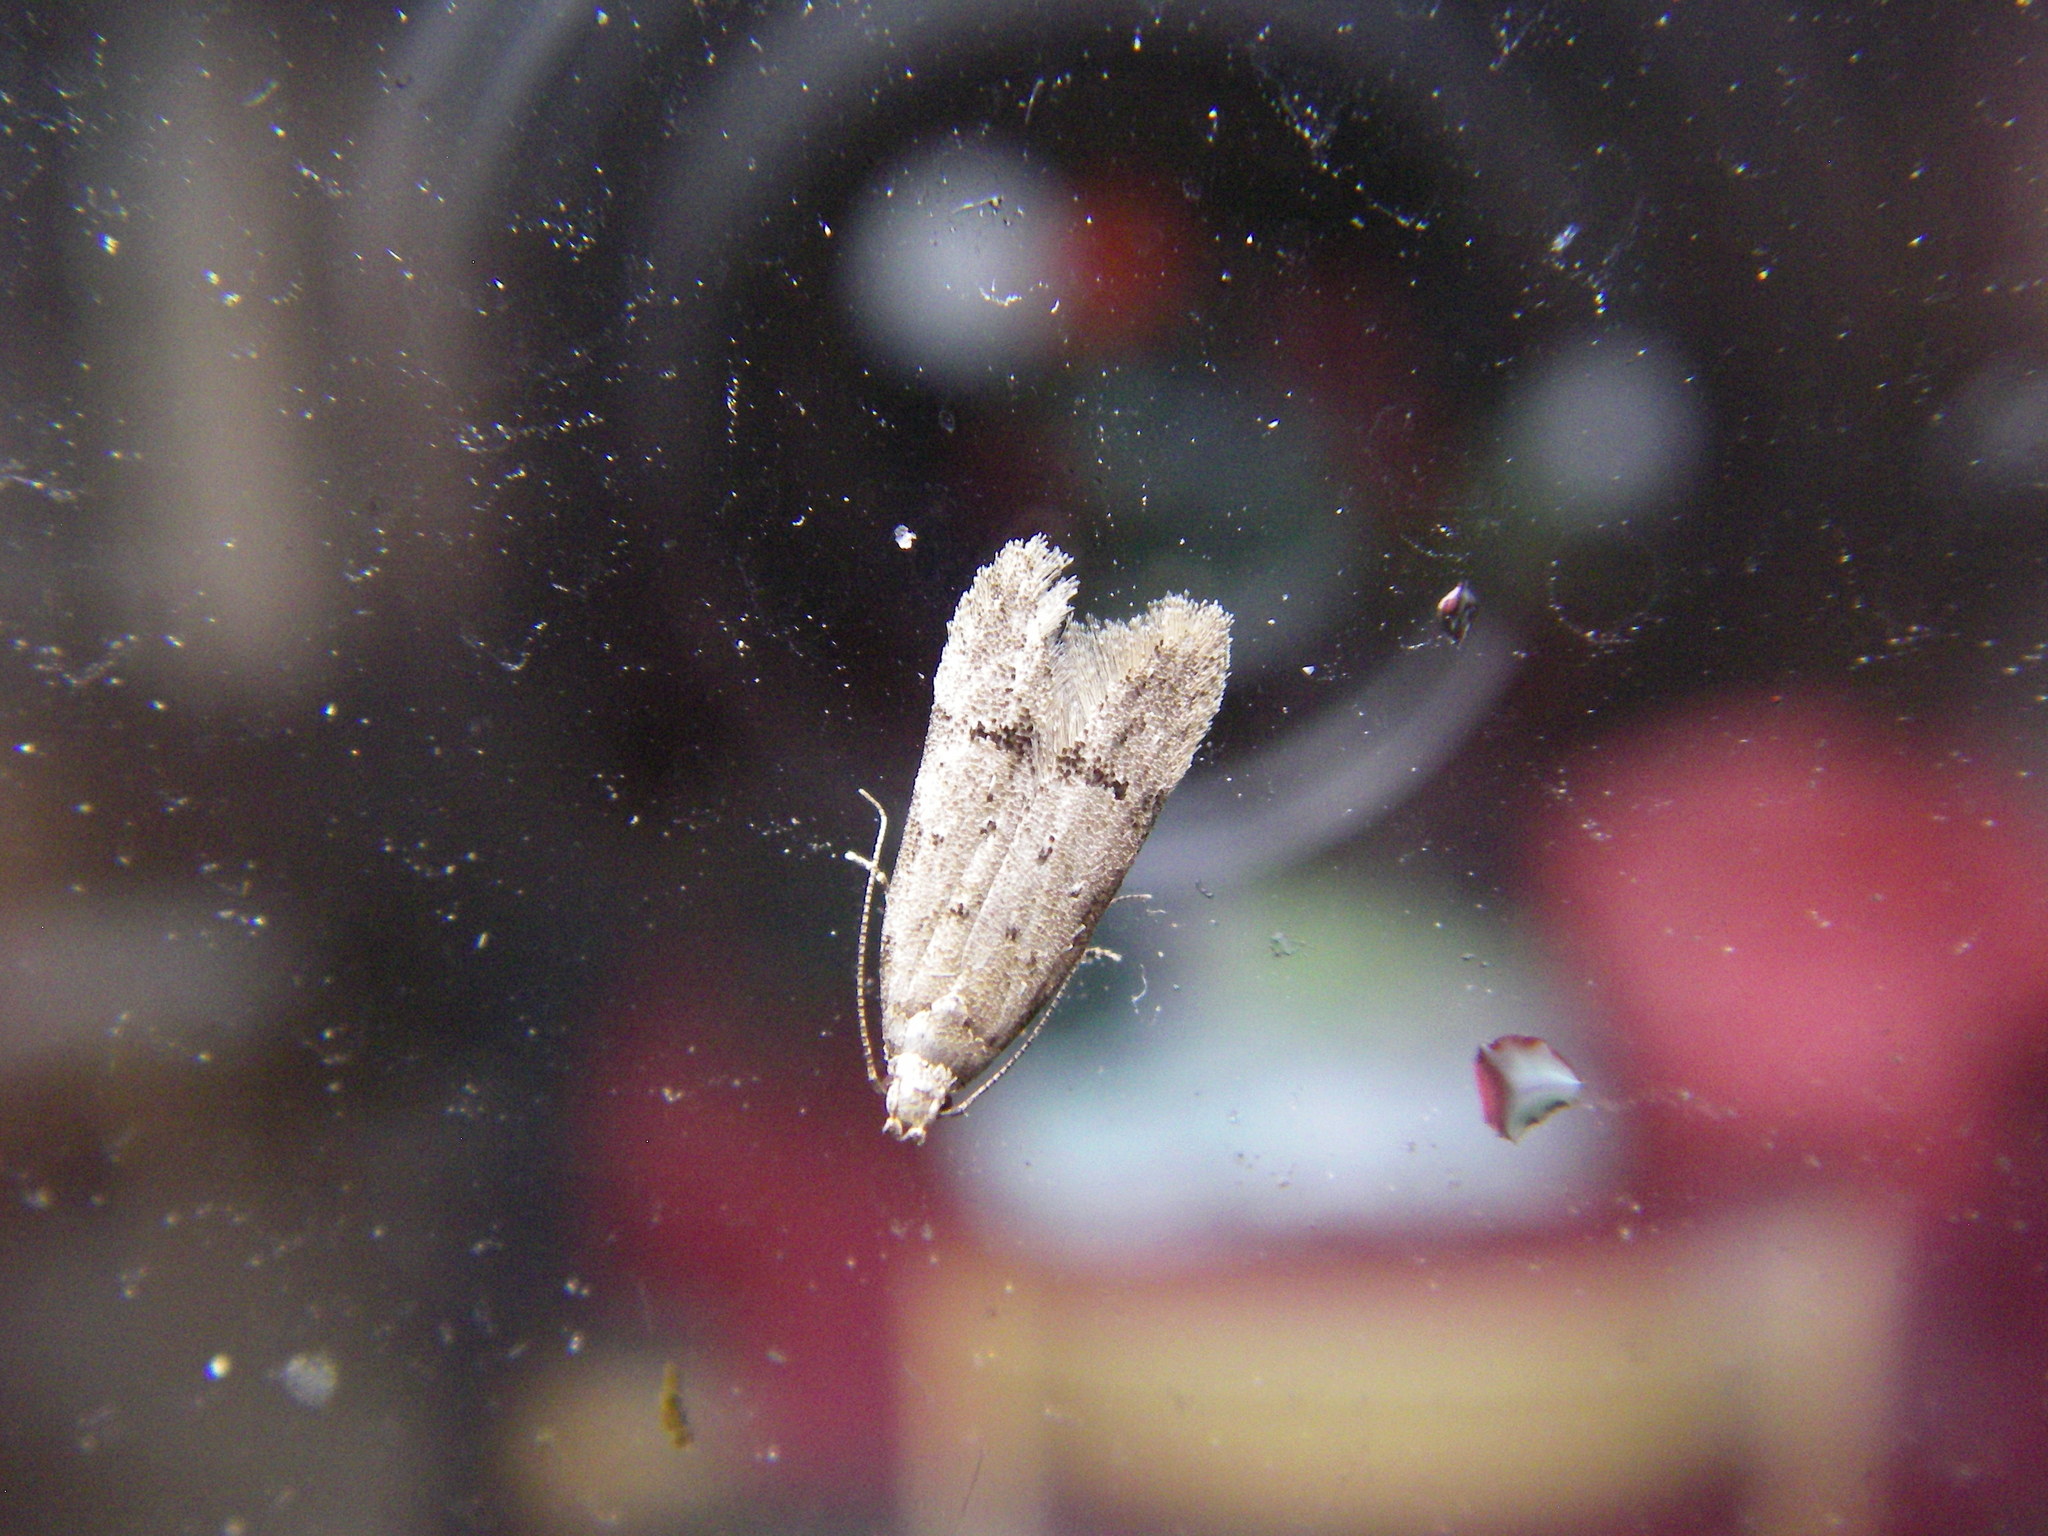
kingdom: Animalia
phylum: Arthropoda
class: Insecta
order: Lepidoptera
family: Gelechiidae
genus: Teleiodes
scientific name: Teleiodes vulgella
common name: Common groundling
